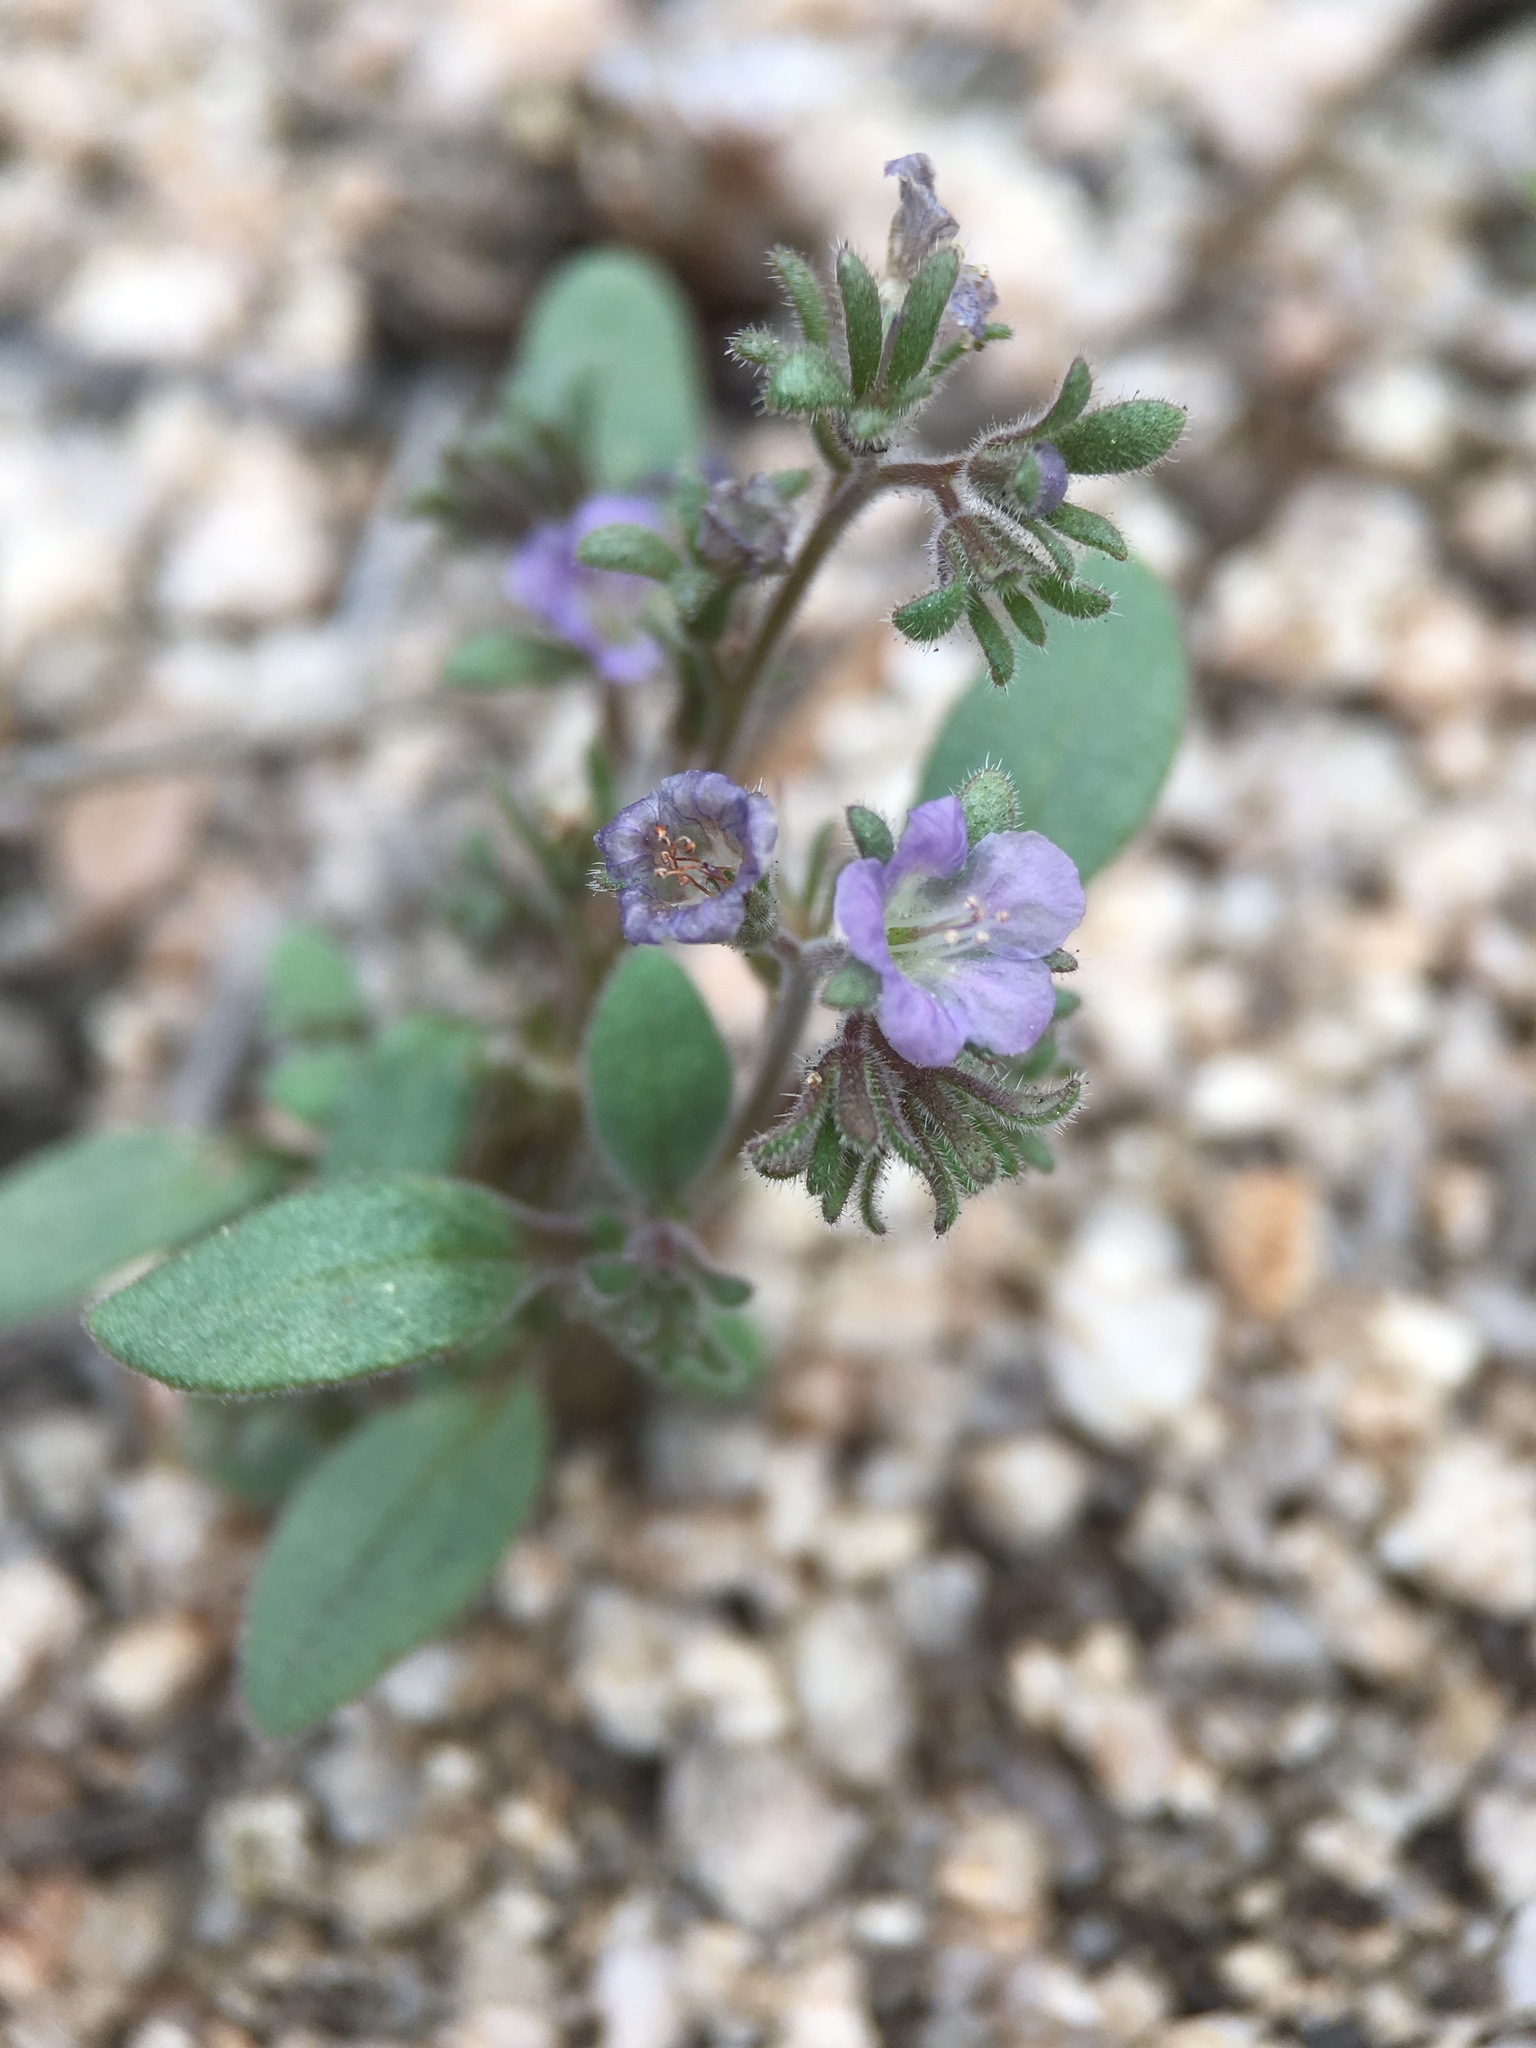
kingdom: Plantae
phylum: Tracheophyta
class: Magnoliopsida
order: Boraginales
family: Hydrophyllaceae
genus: Phacelia
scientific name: Phacelia austromontana
